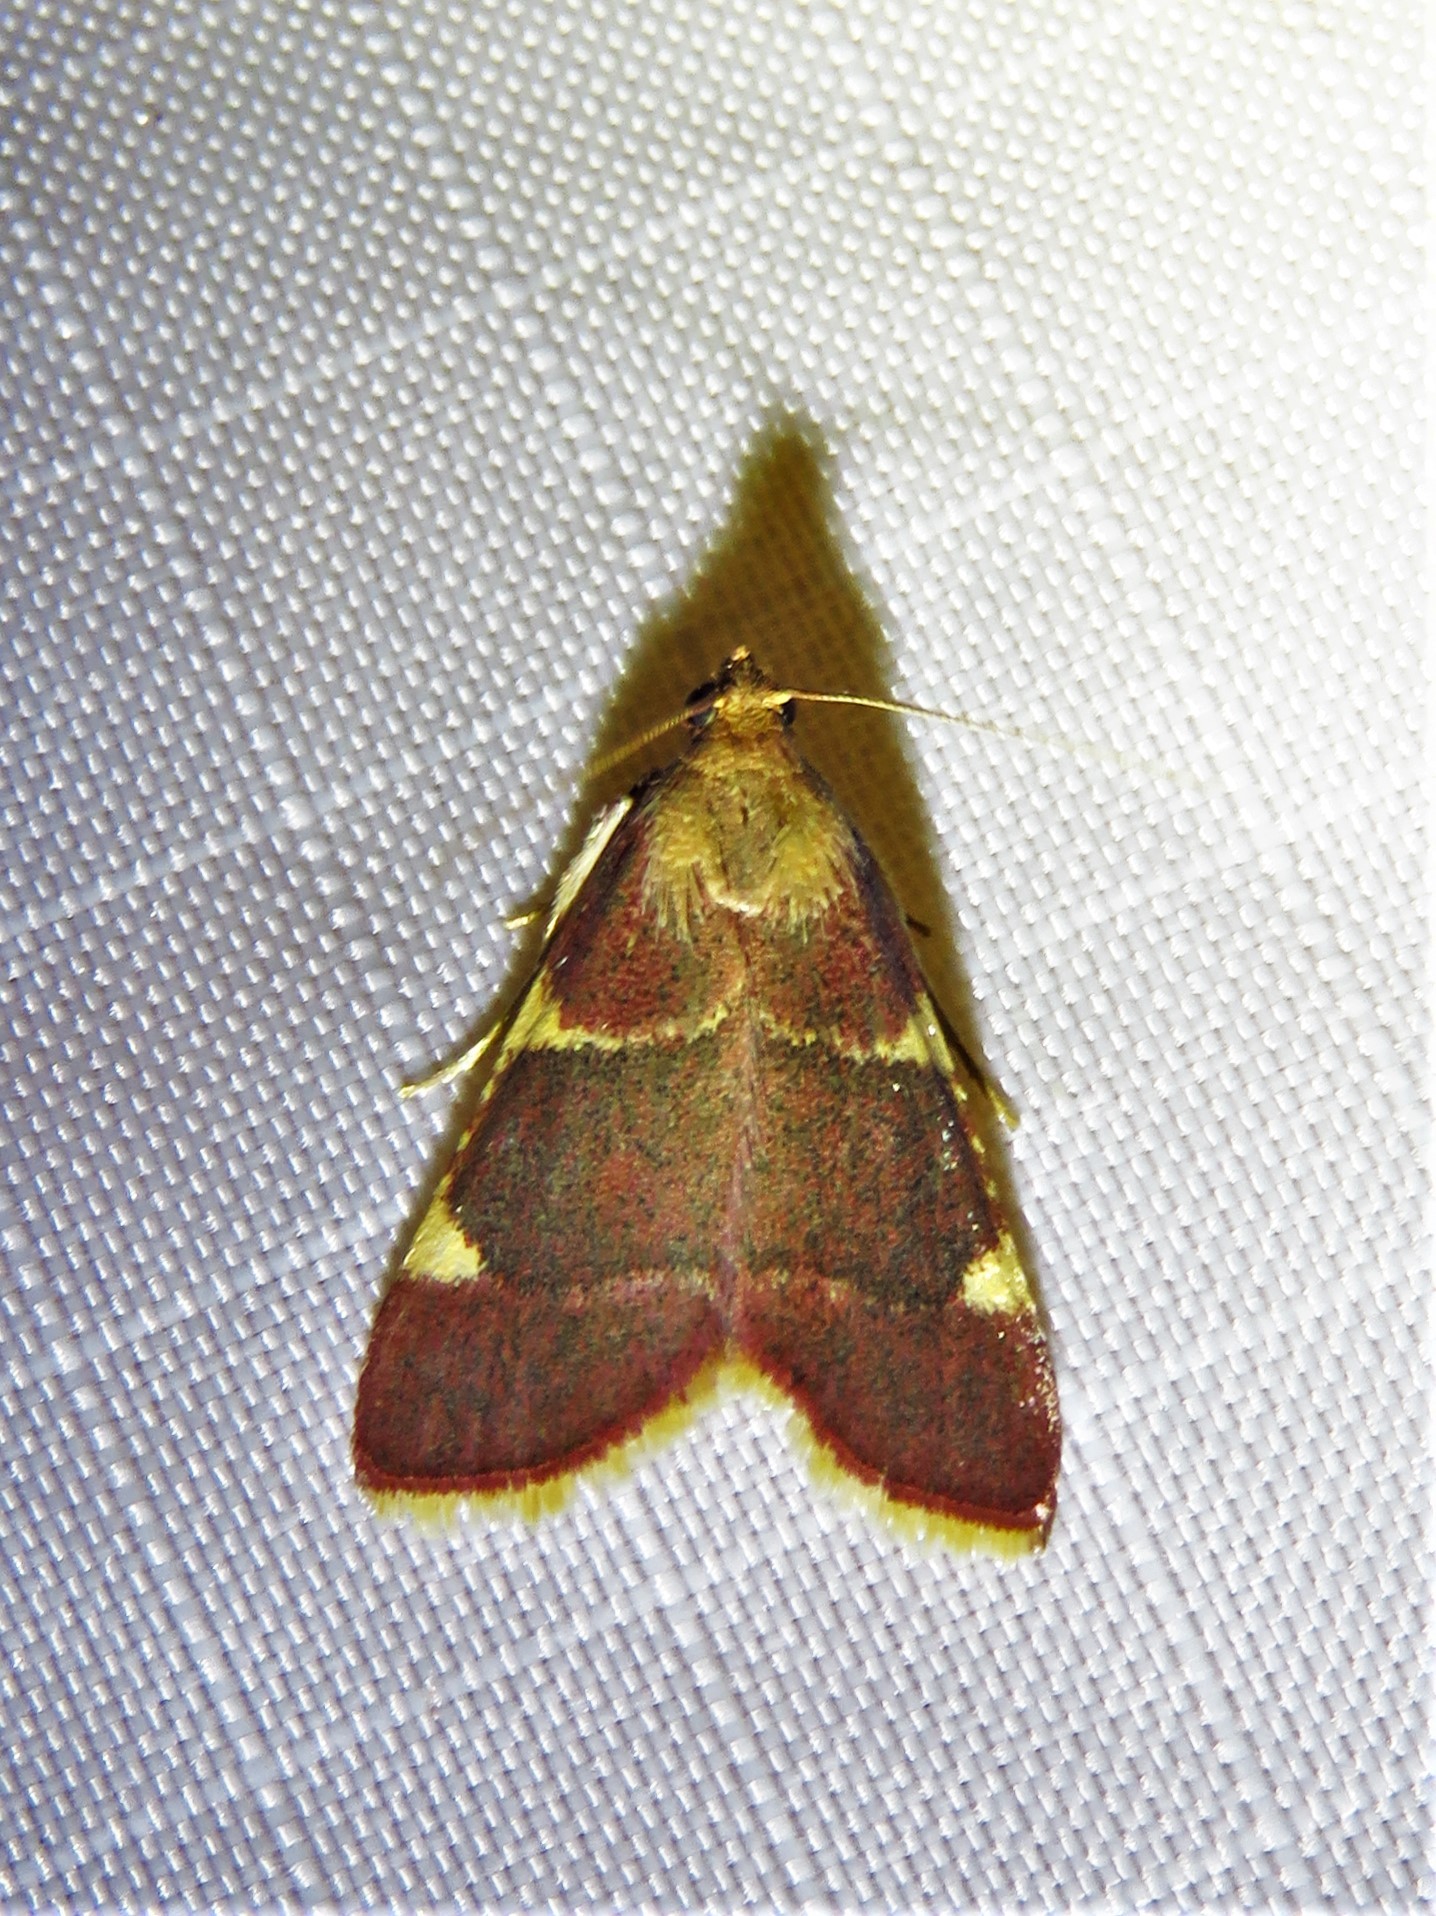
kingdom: Animalia
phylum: Arthropoda
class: Insecta
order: Lepidoptera
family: Pyralidae
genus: Hypsopygia
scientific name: Hypsopygia olinalis
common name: Yellow-fringed dolichomia moth
